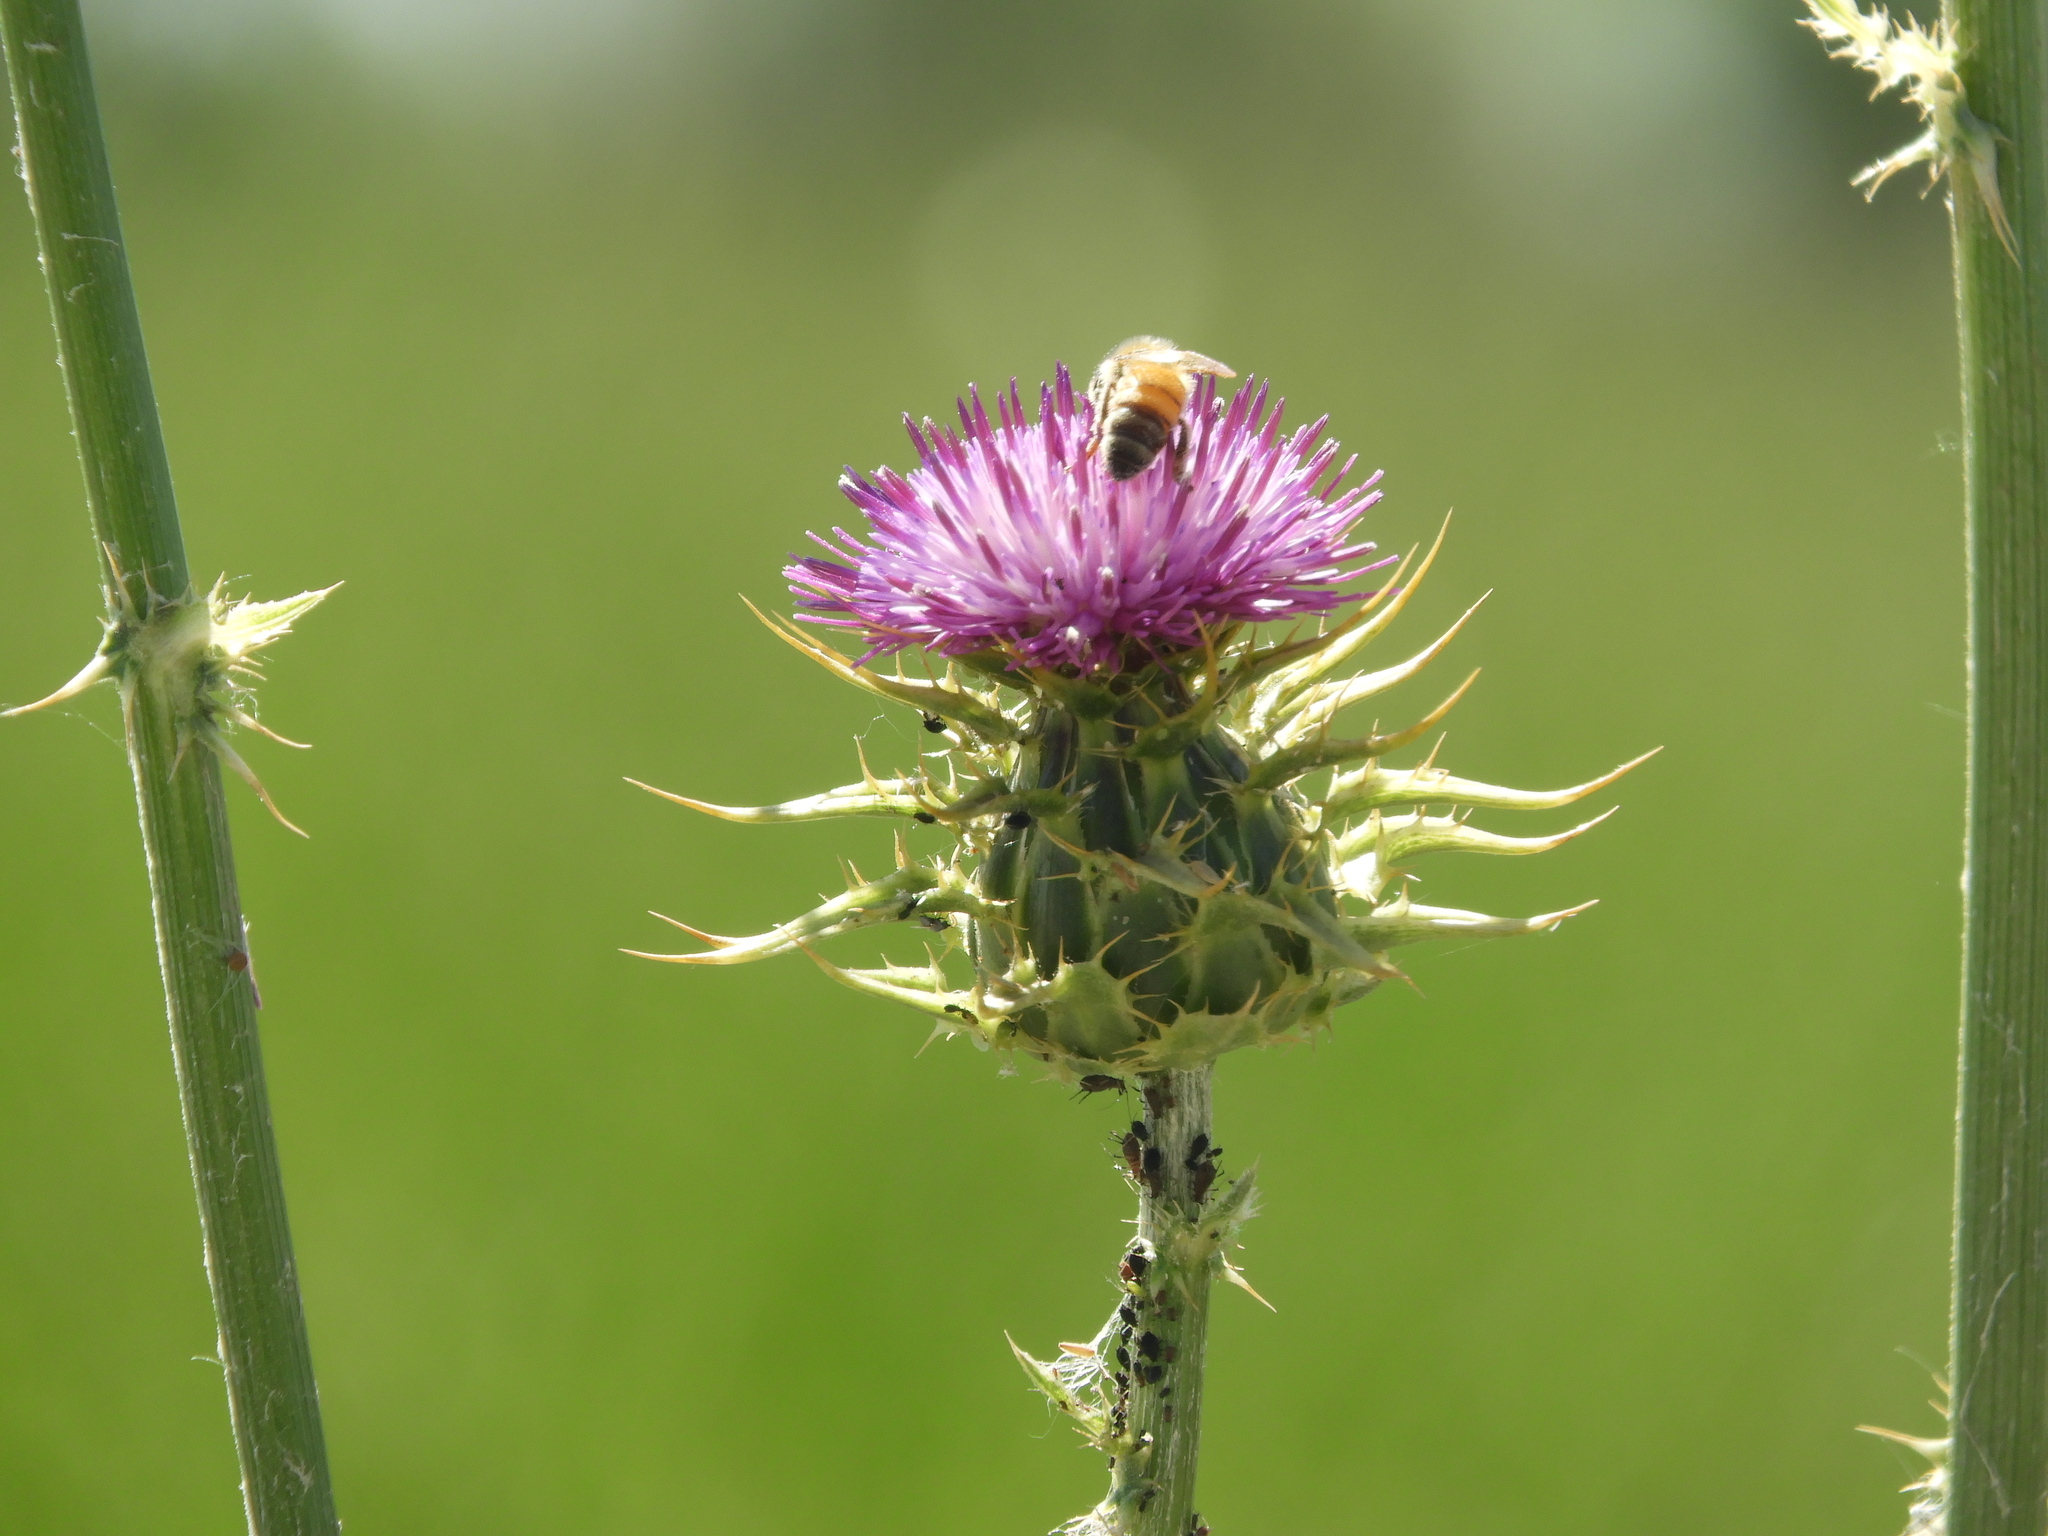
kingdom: Plantae
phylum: Tracheophyta
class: Magnoliopsida
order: Asterales
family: Asteraceae
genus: Silybum
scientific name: Silybum marianum
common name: Milk thistle
